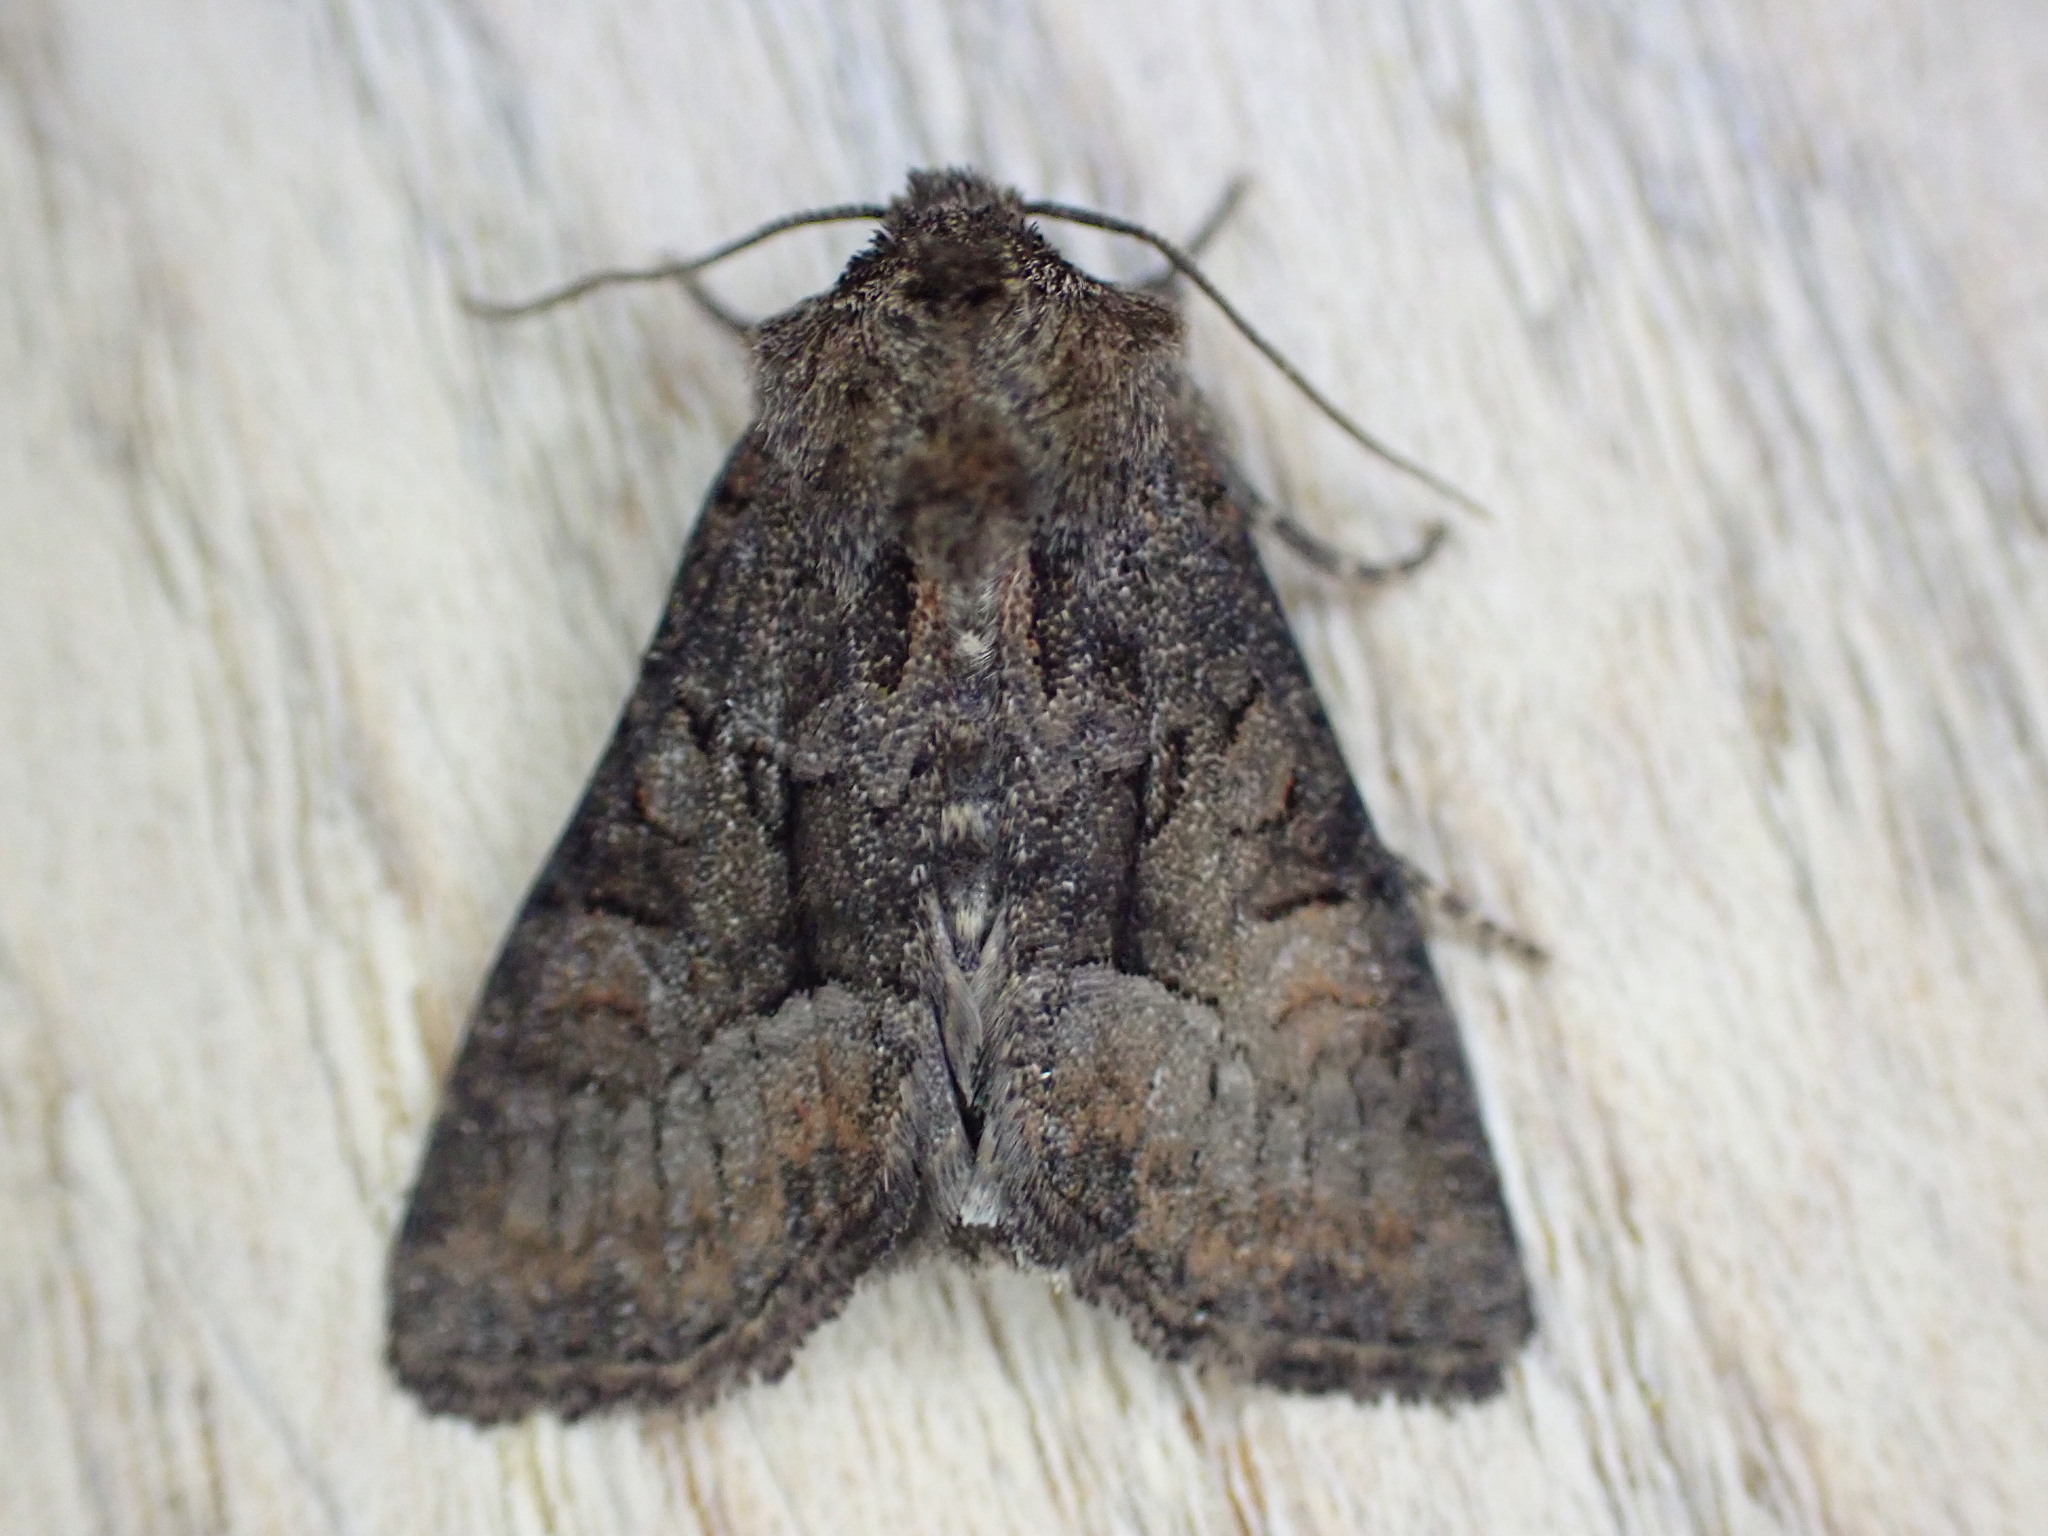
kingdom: Animalia
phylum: Arthropoda
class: Insecta
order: Lepidoptera
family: Noctuidae
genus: Oligia
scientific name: Oligia latruncula
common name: Tawny marbled minor
